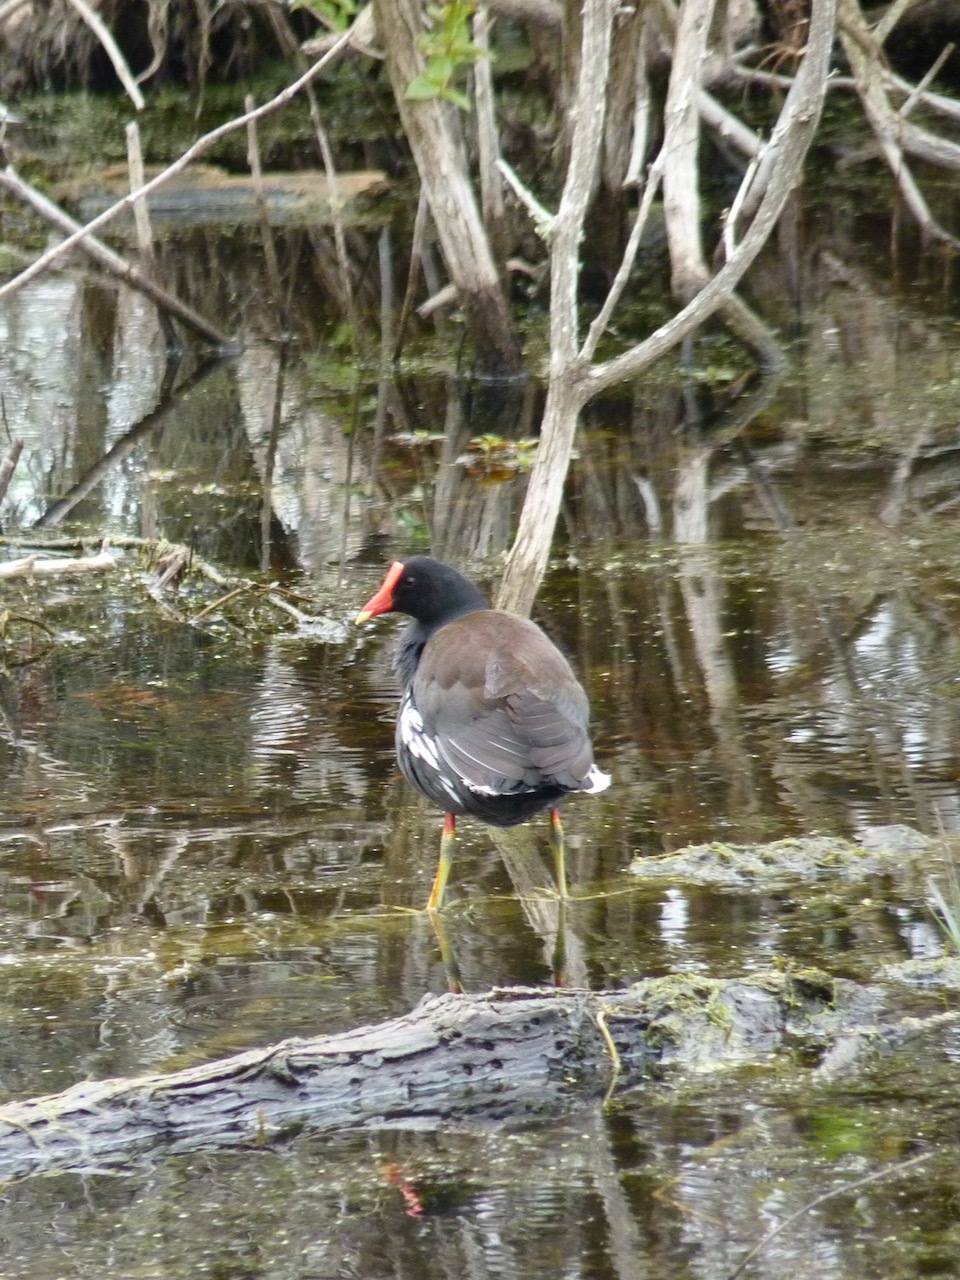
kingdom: Animalia
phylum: Chordata
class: Aves
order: Gruiformes
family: Rallidae
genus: Gallinula
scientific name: Gallinula chloropus
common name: Common moorhen
